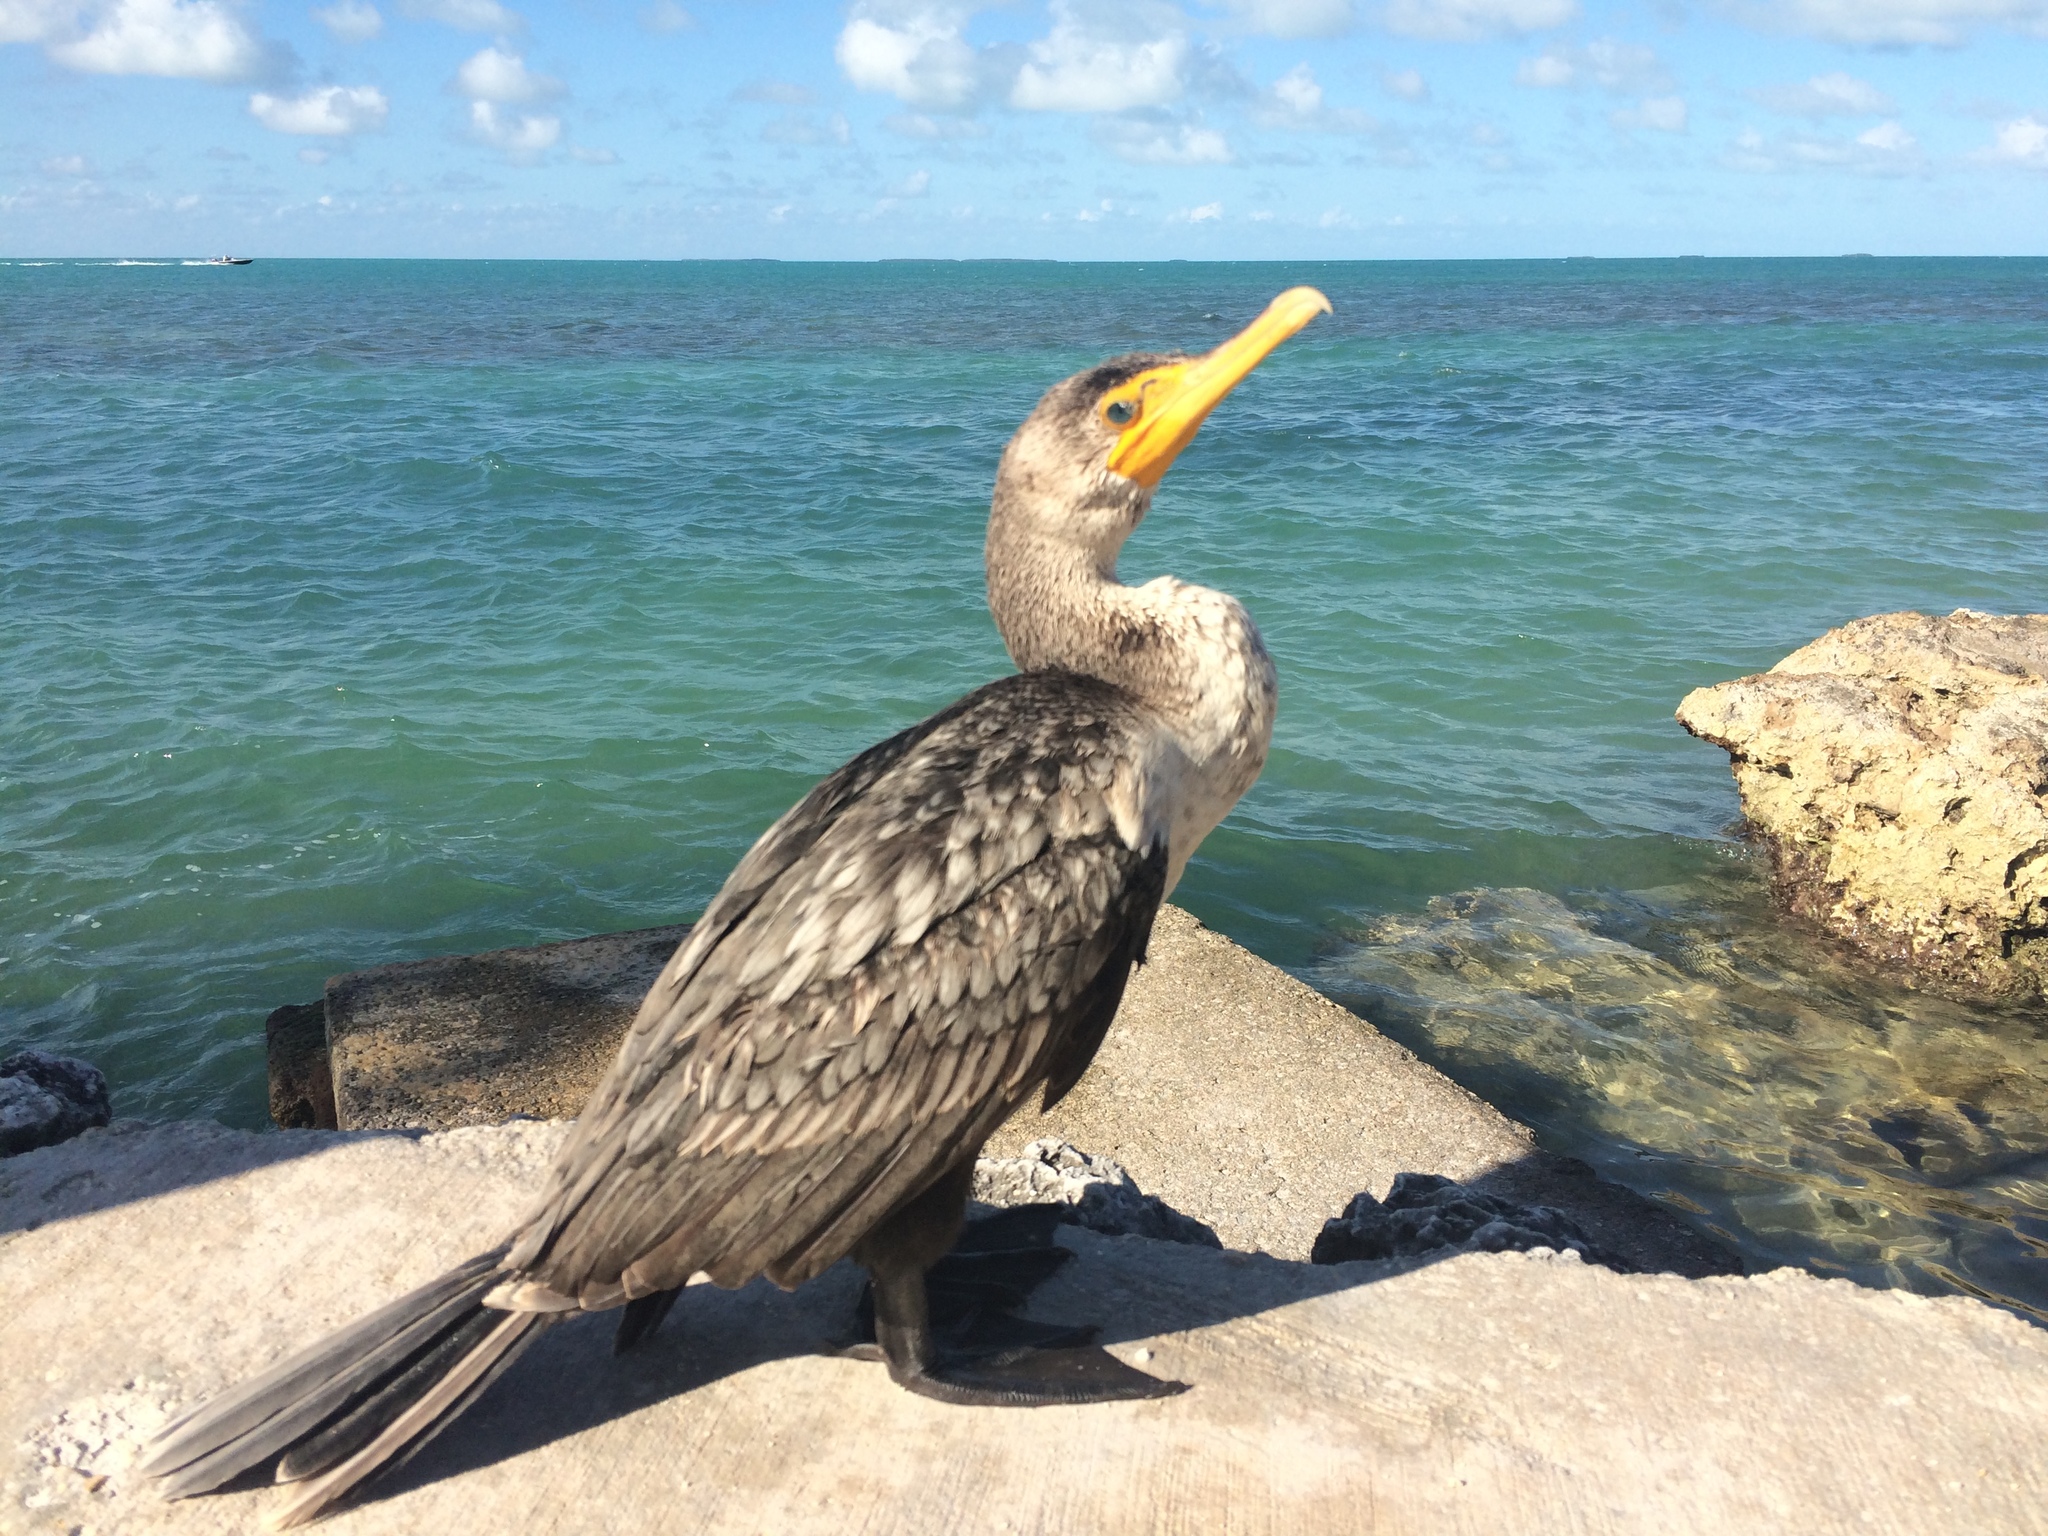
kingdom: Animalia
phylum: Chordata
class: Aves
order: Suliformes
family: Phalacrocoracidae
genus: Phalacrocorax
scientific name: Phalacrocorax auritus
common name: Double-crested cormorant
